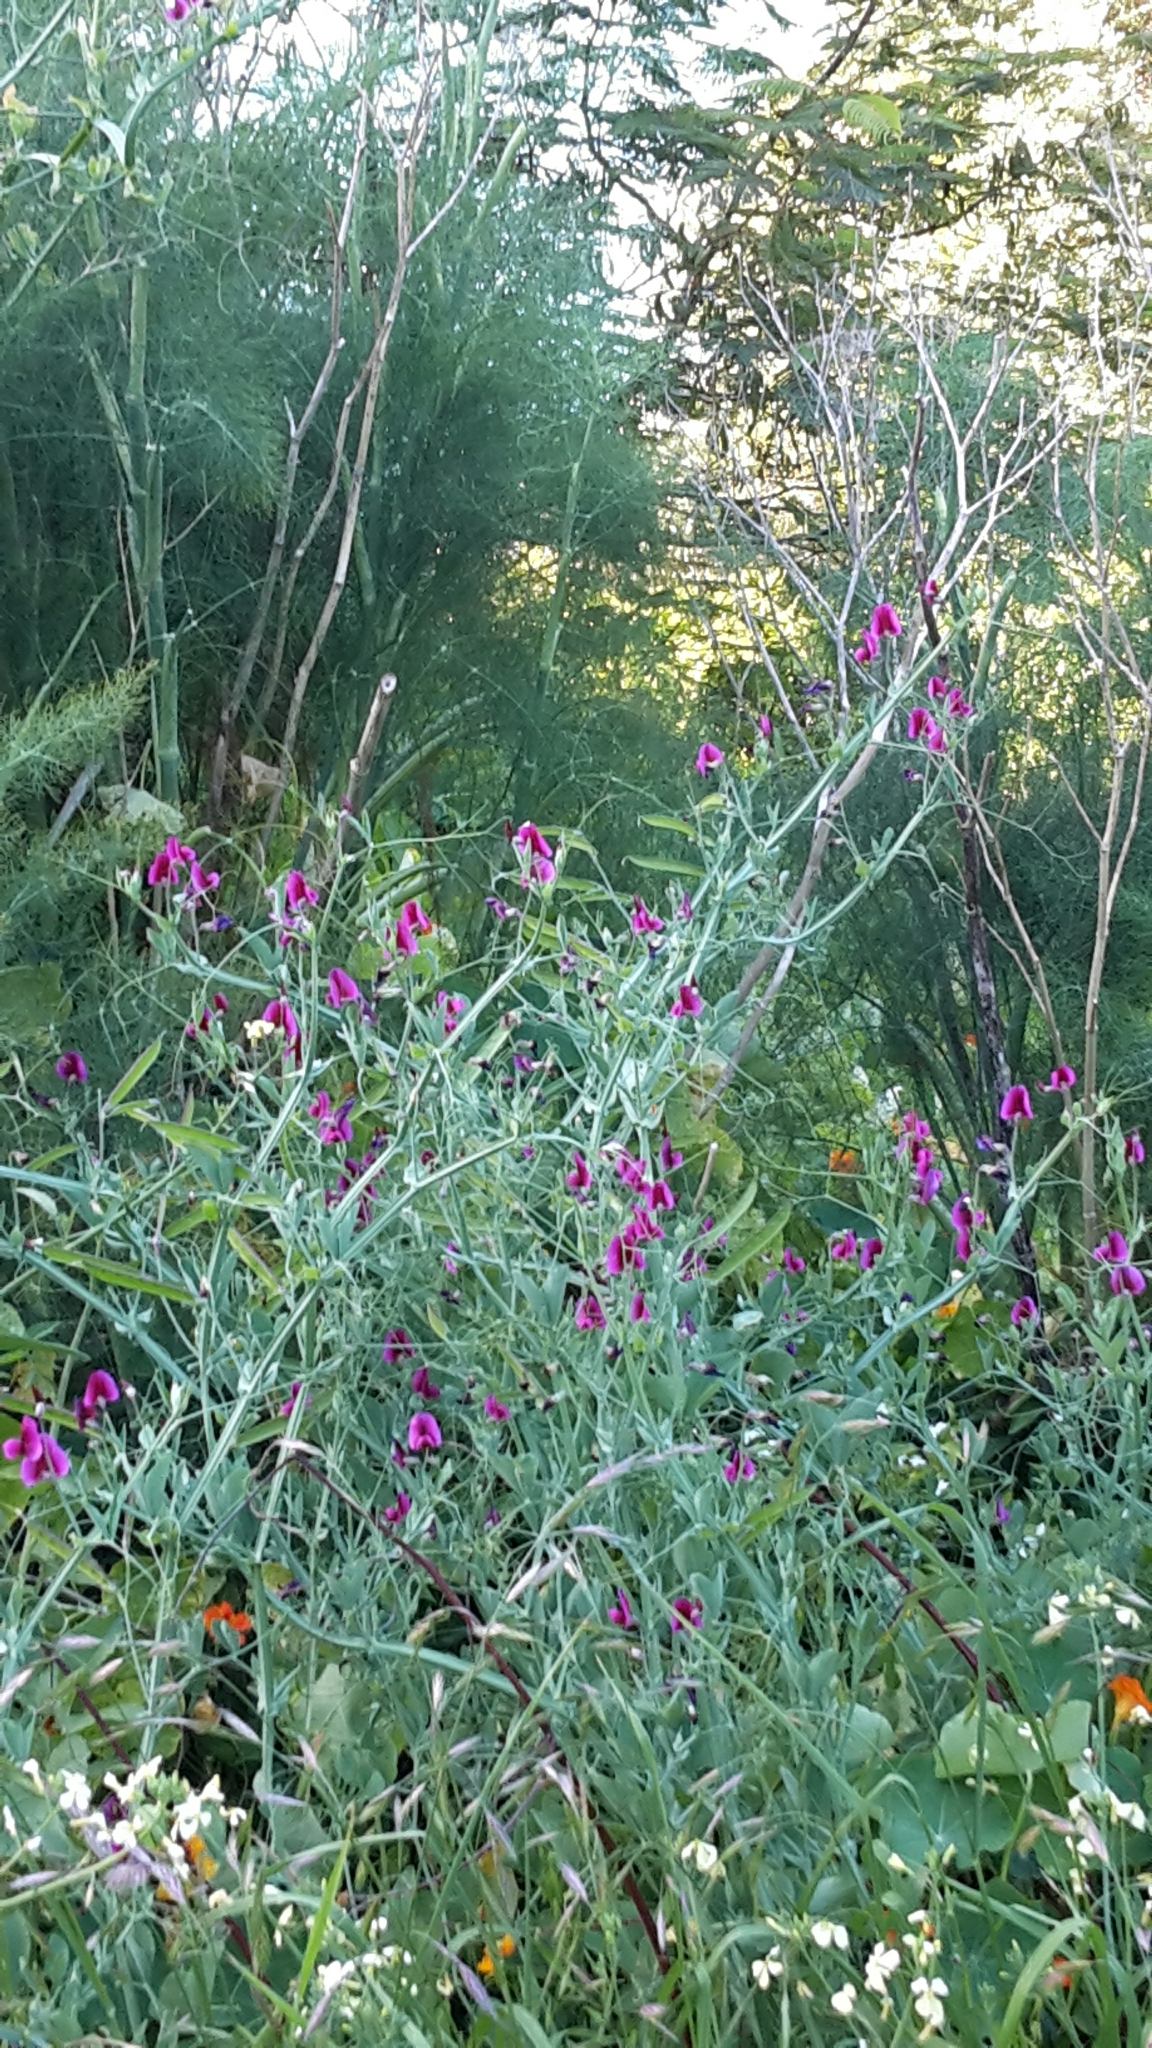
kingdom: Plantae
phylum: Tracheophyta
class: Magnoliopsida
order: Fabales
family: Fabaceae
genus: Lathyrus
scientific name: Lathyrus tingitanus
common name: Tangier pea
